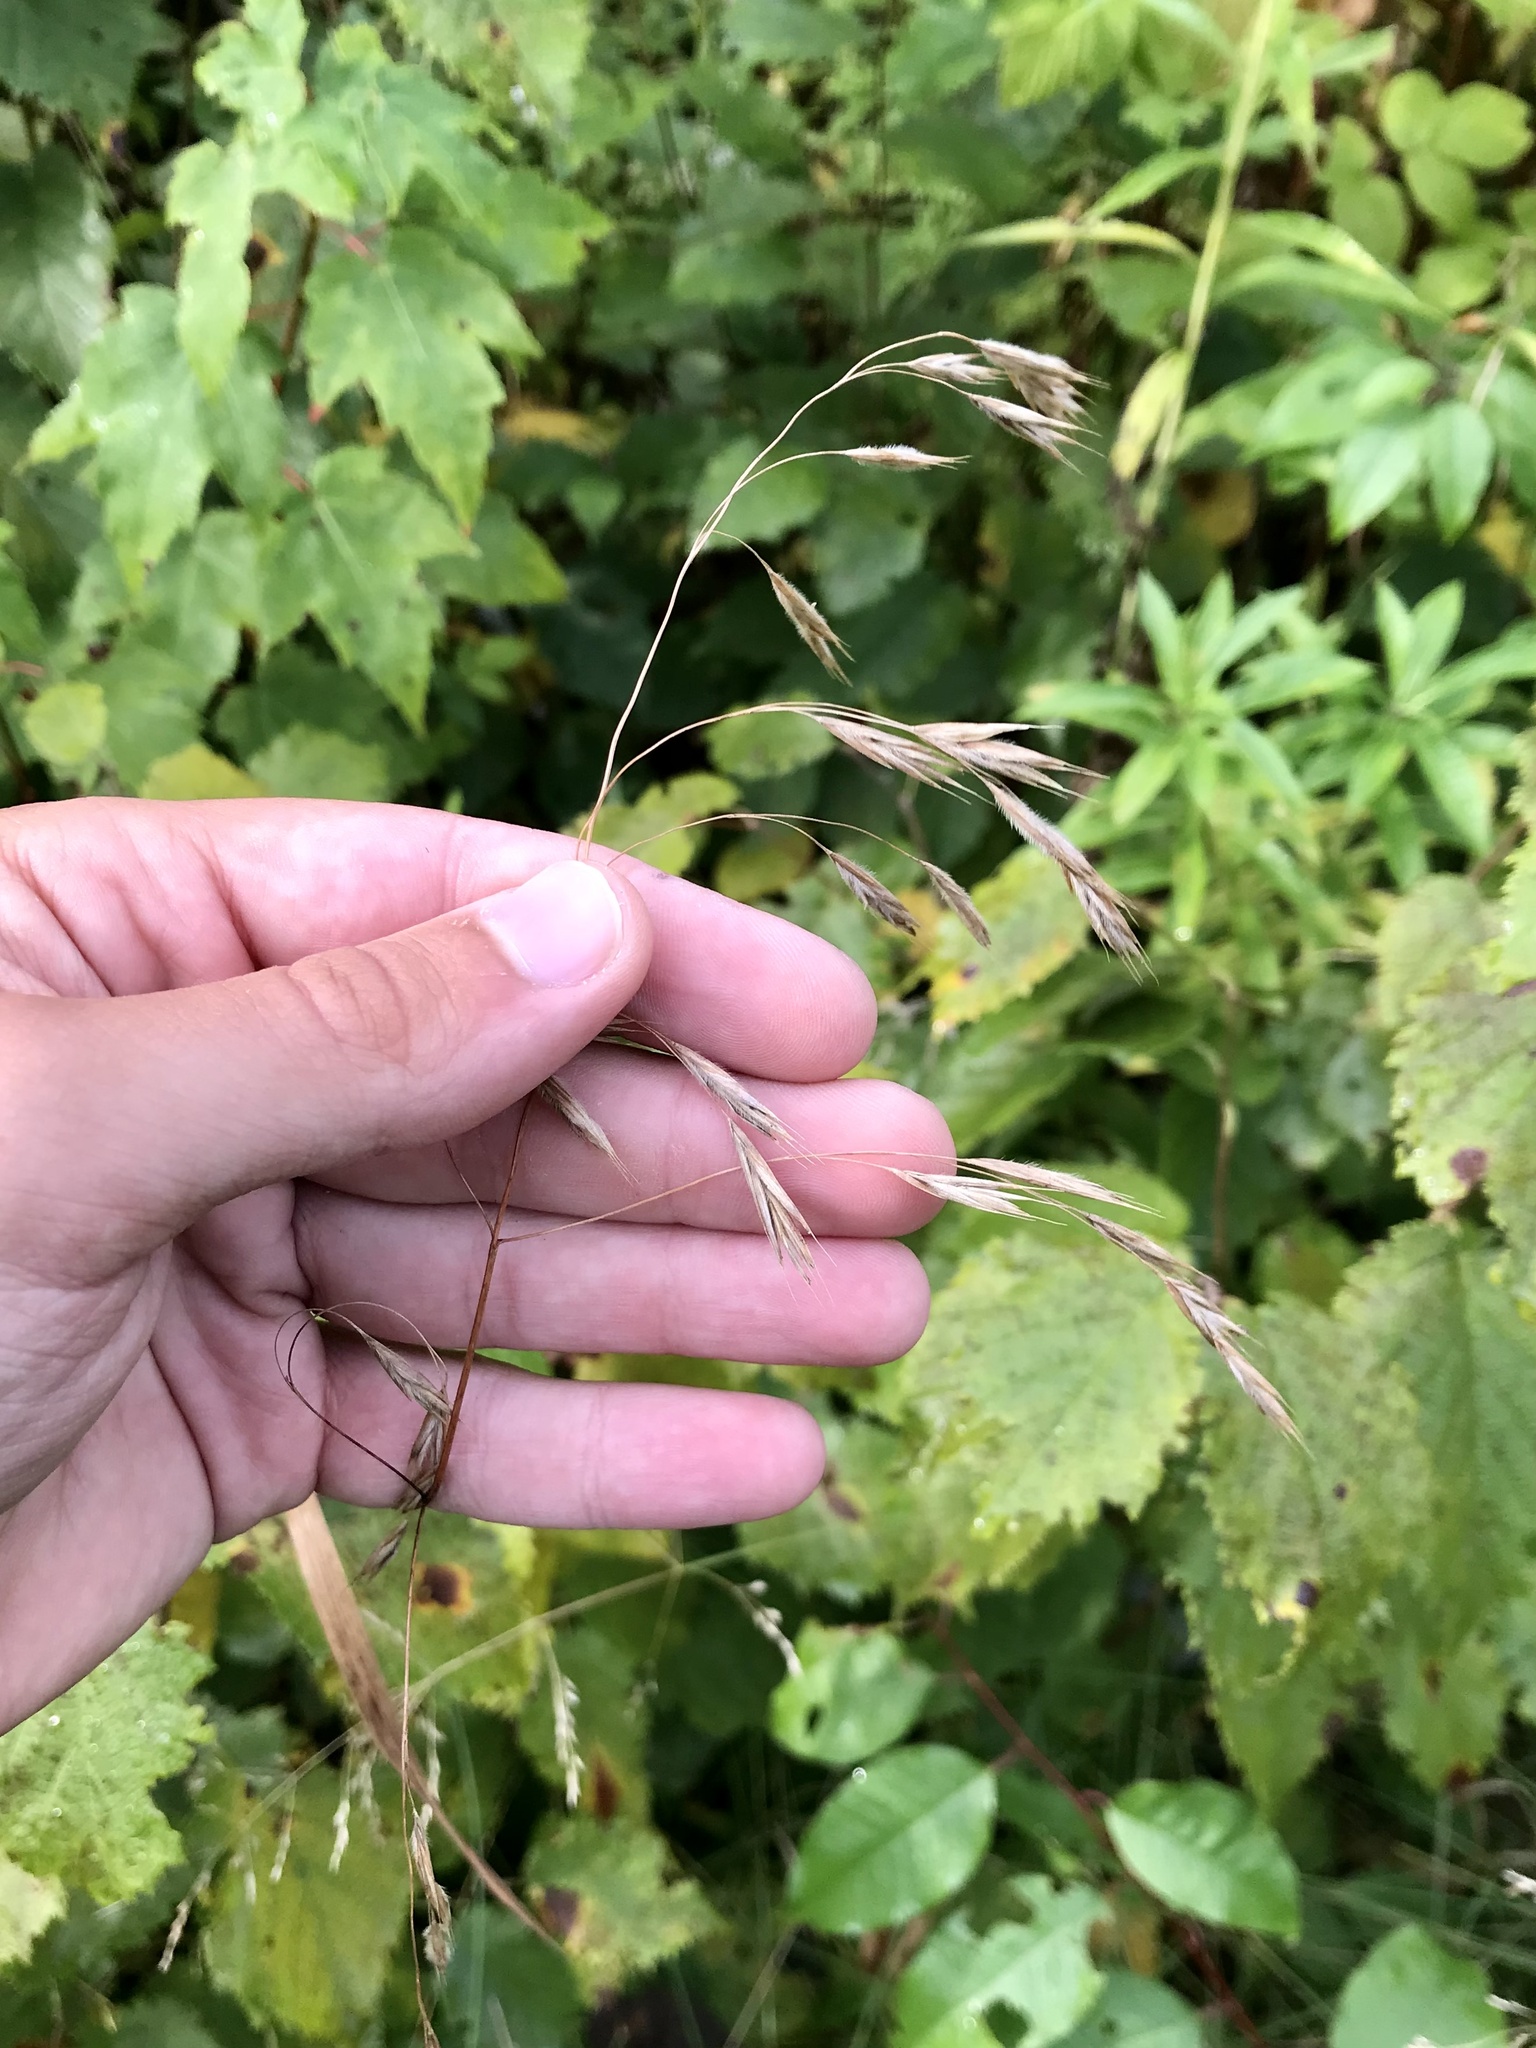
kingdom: Plantae
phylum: Tracheophyta
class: Liliopsida
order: Poales
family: Poaceae
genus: Bromus
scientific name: Bromus ciliatus
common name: Fringe brome
